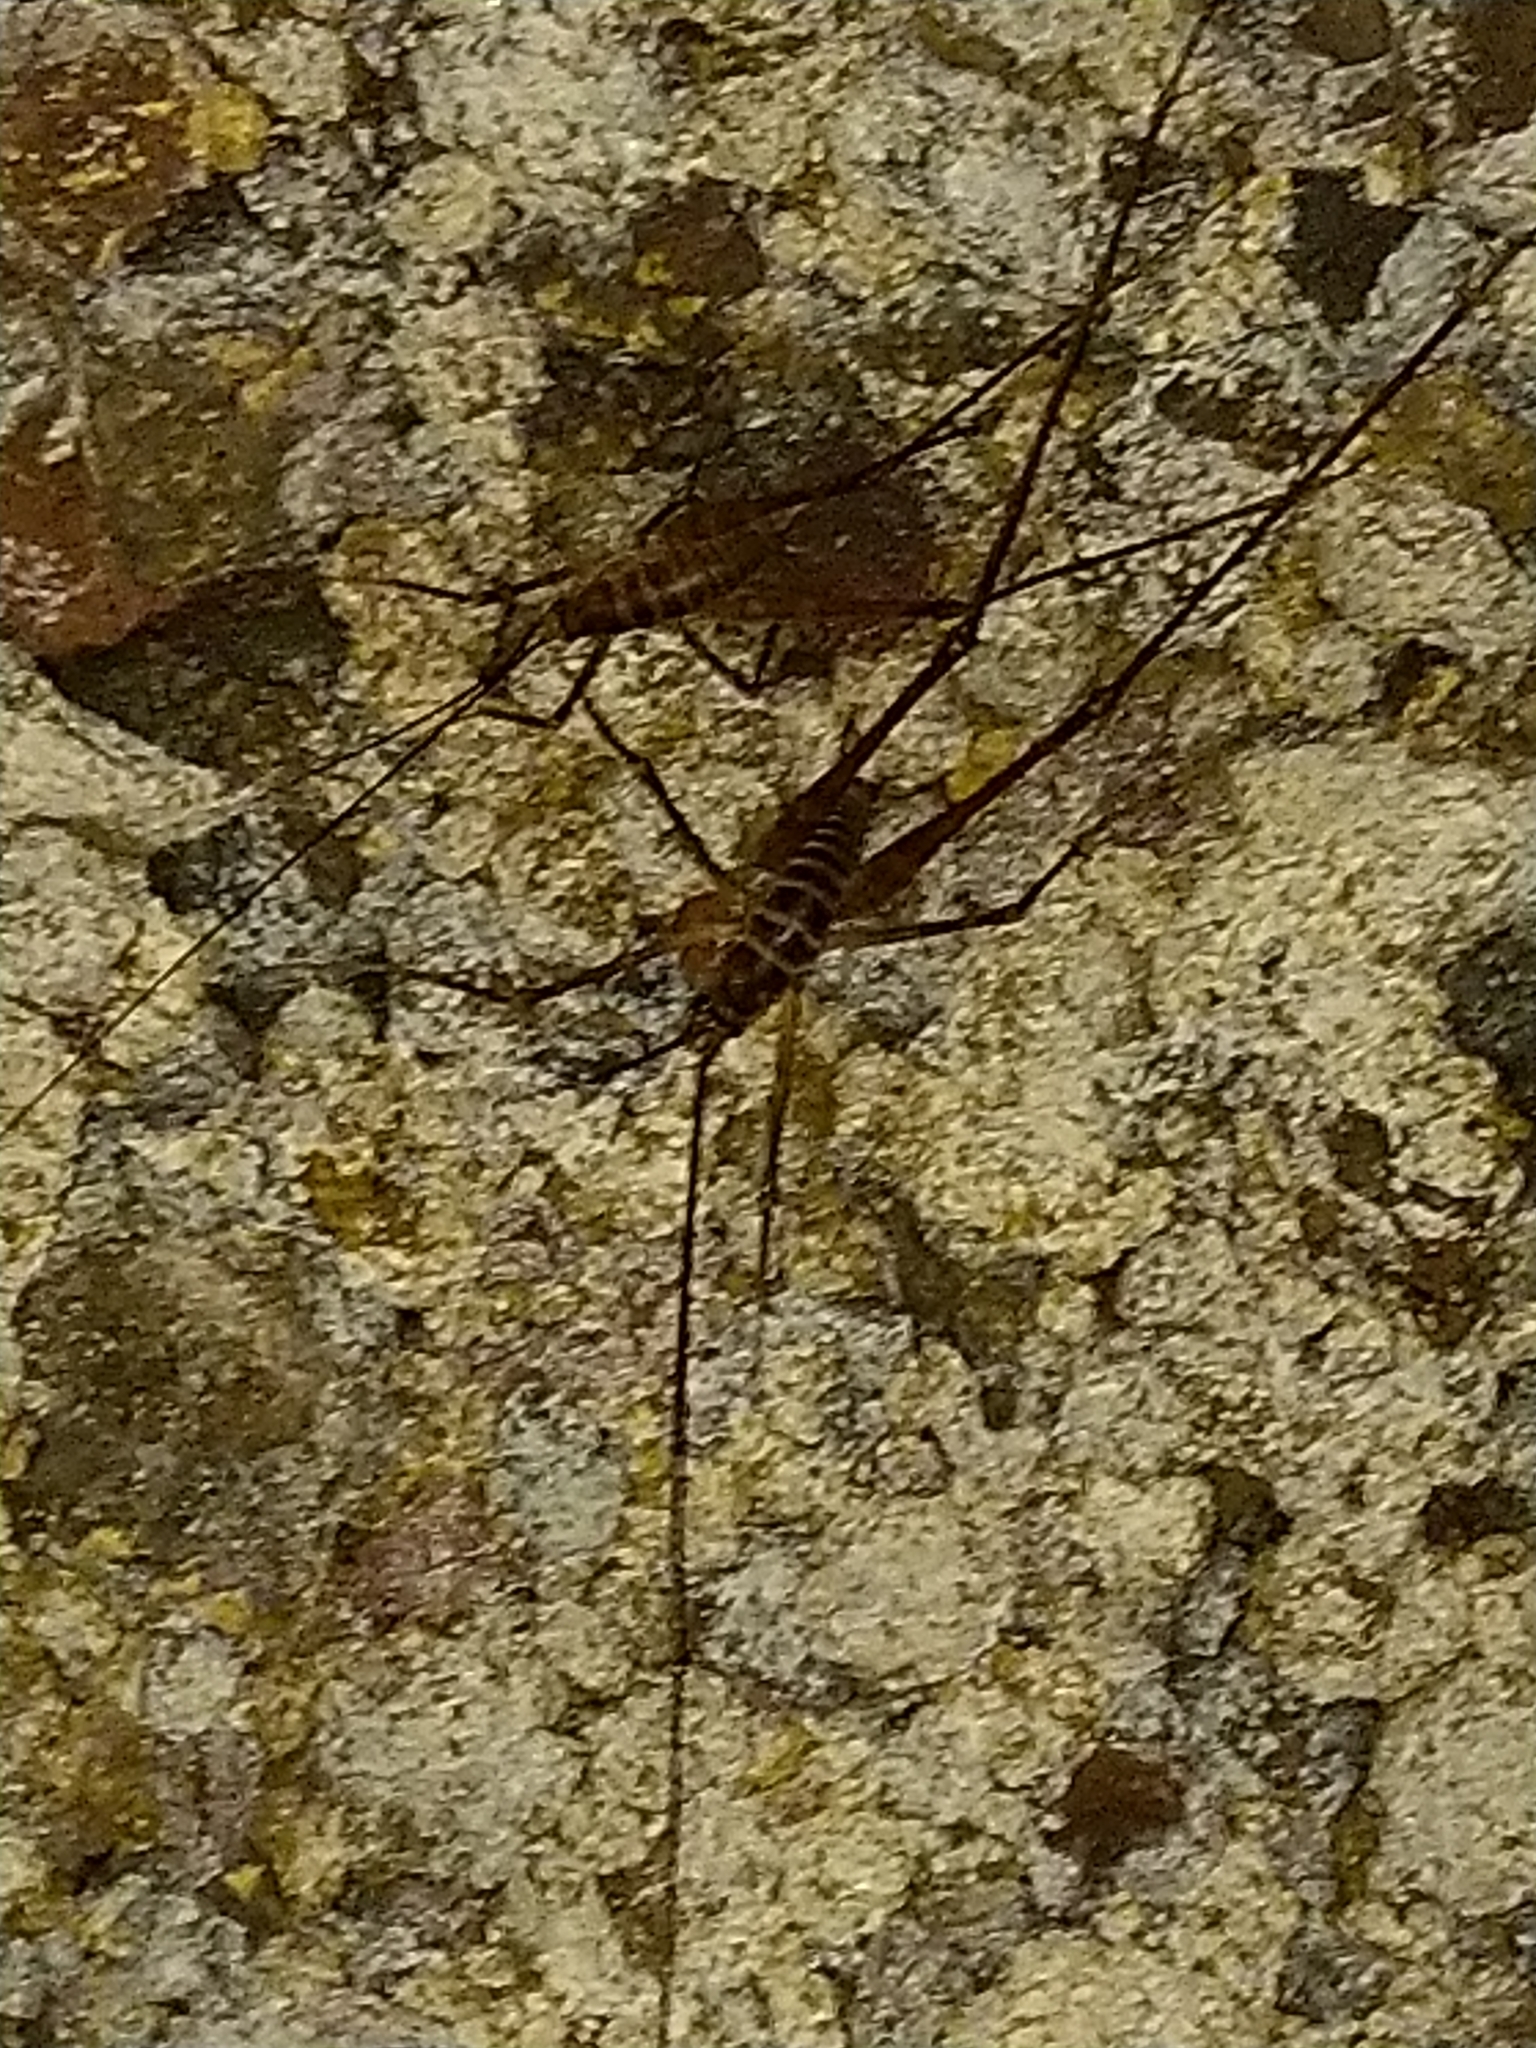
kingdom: Animalia
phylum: Arthropoda
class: Insecta
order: Orthoptera
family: Rhaphidophoridae
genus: Pachyrhamma
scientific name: Pachyrhamma acanthocera
